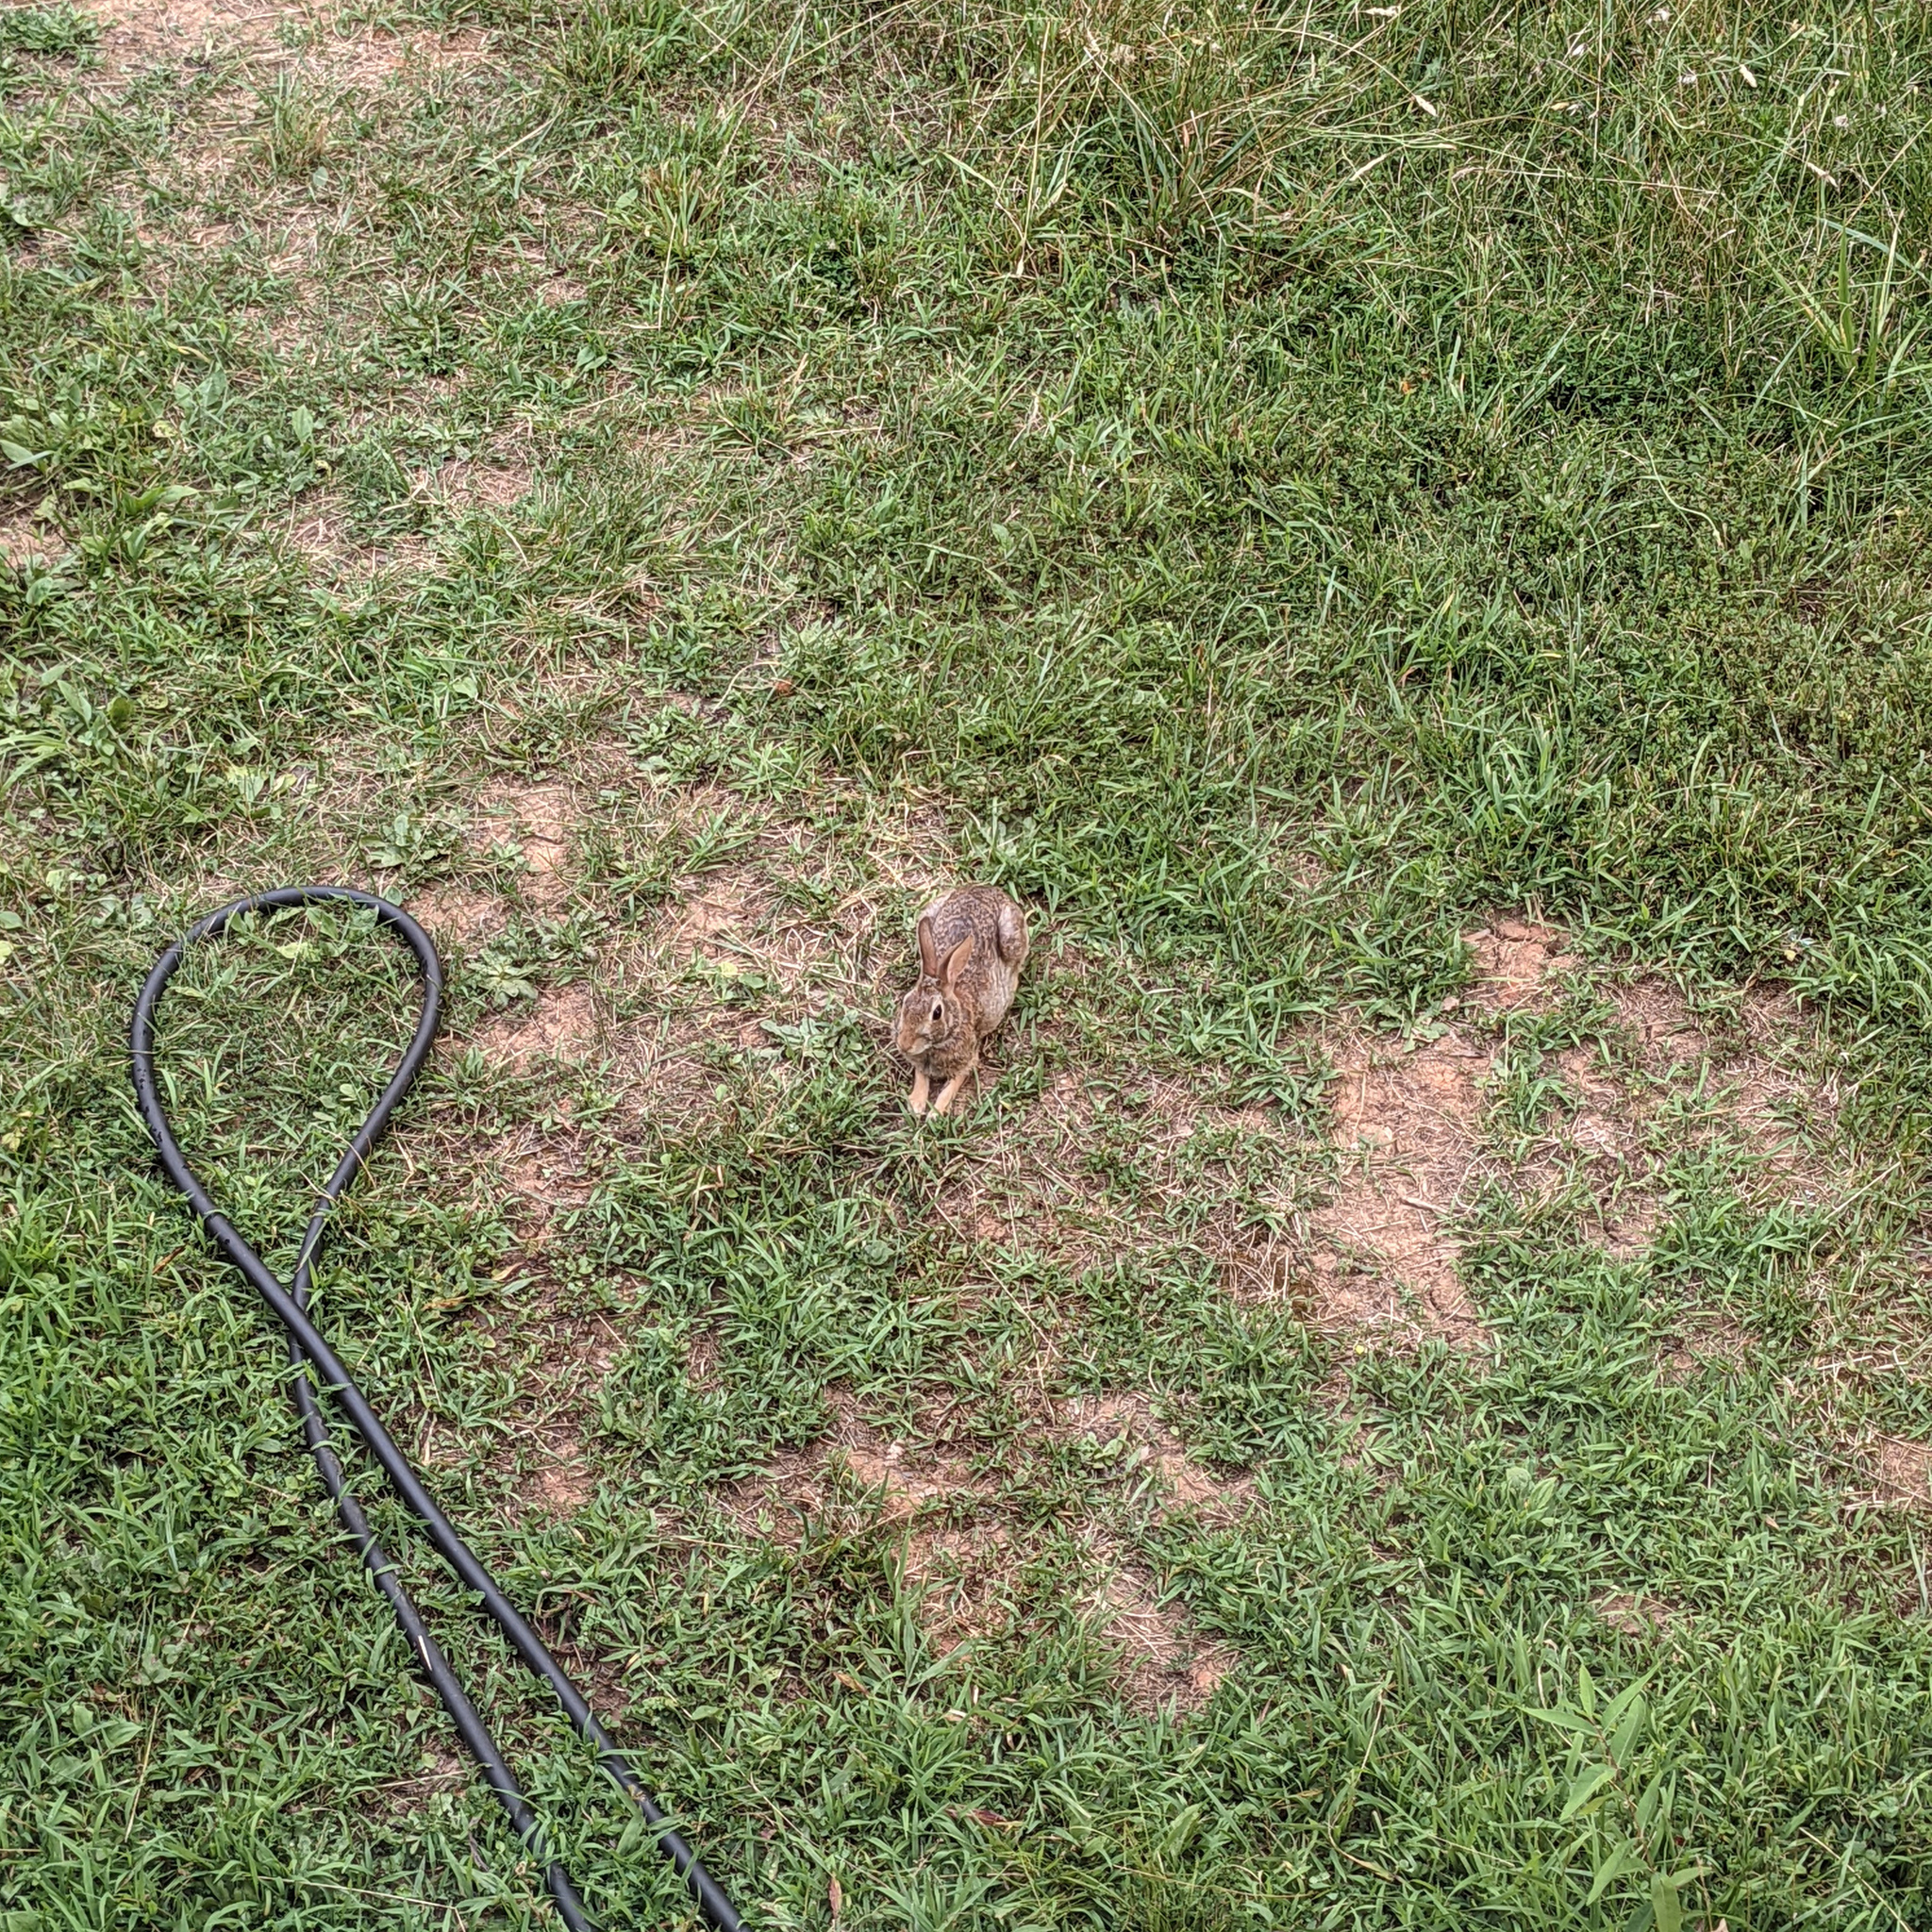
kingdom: Animalia
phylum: Chordata
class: Mammalia
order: Lagomorpha
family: Leporidae
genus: Sylvilagus
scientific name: Sylvilagus floridanus
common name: Eastern cottontail
